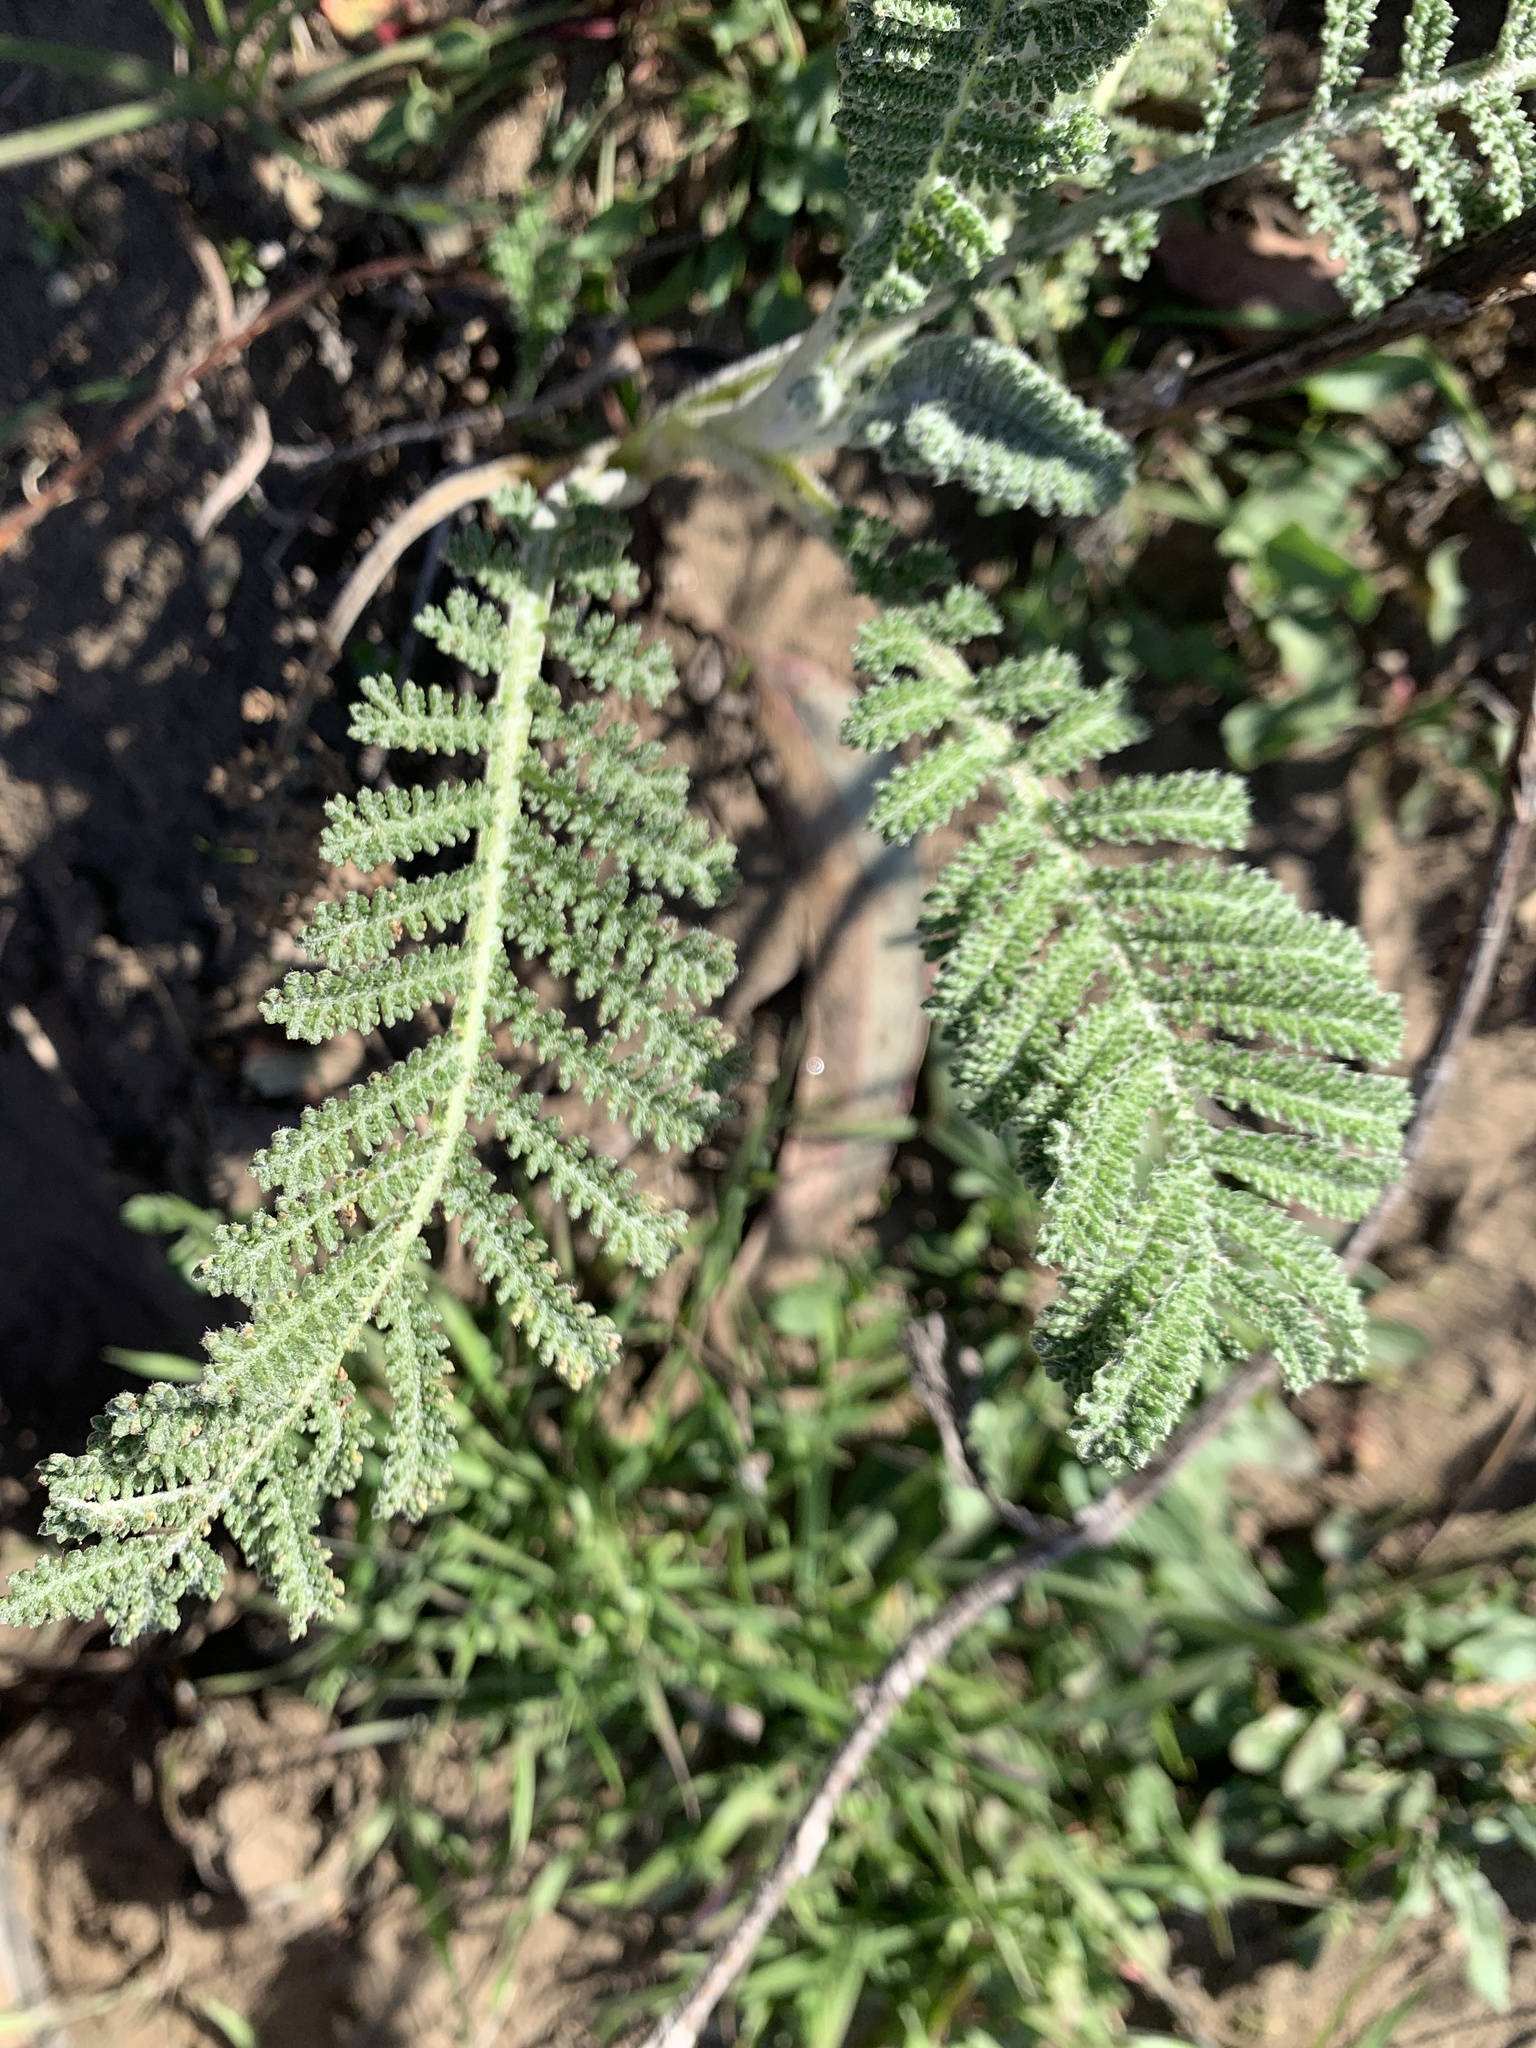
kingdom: Plantae
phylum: Tracheophyta
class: Magnoliopsida
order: Asterales
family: Asteraceae
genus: Tanacetum
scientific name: Tanacetum bipinnatum
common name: Dwarf tansy
